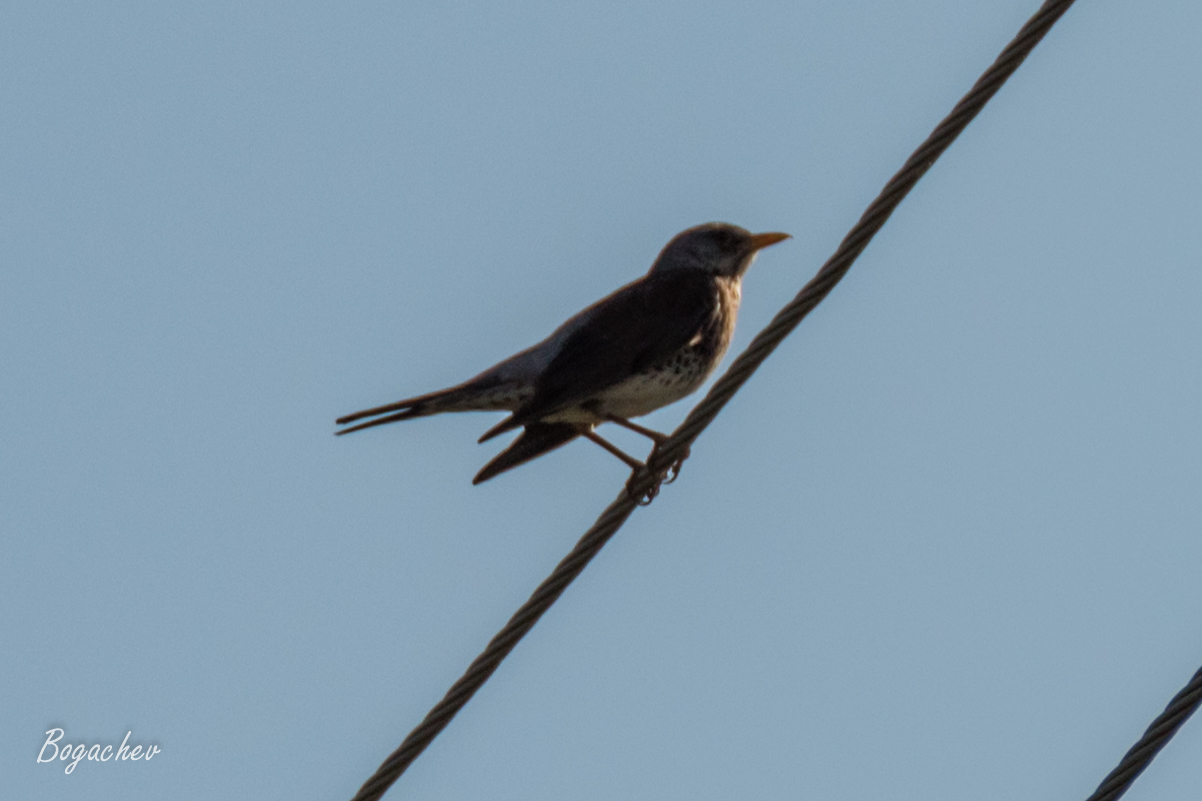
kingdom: Animalia
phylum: Chordata
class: Aves
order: Passeriformes
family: Turdidae
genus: Turdus
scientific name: Turdus pilaris
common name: Fieldfare
